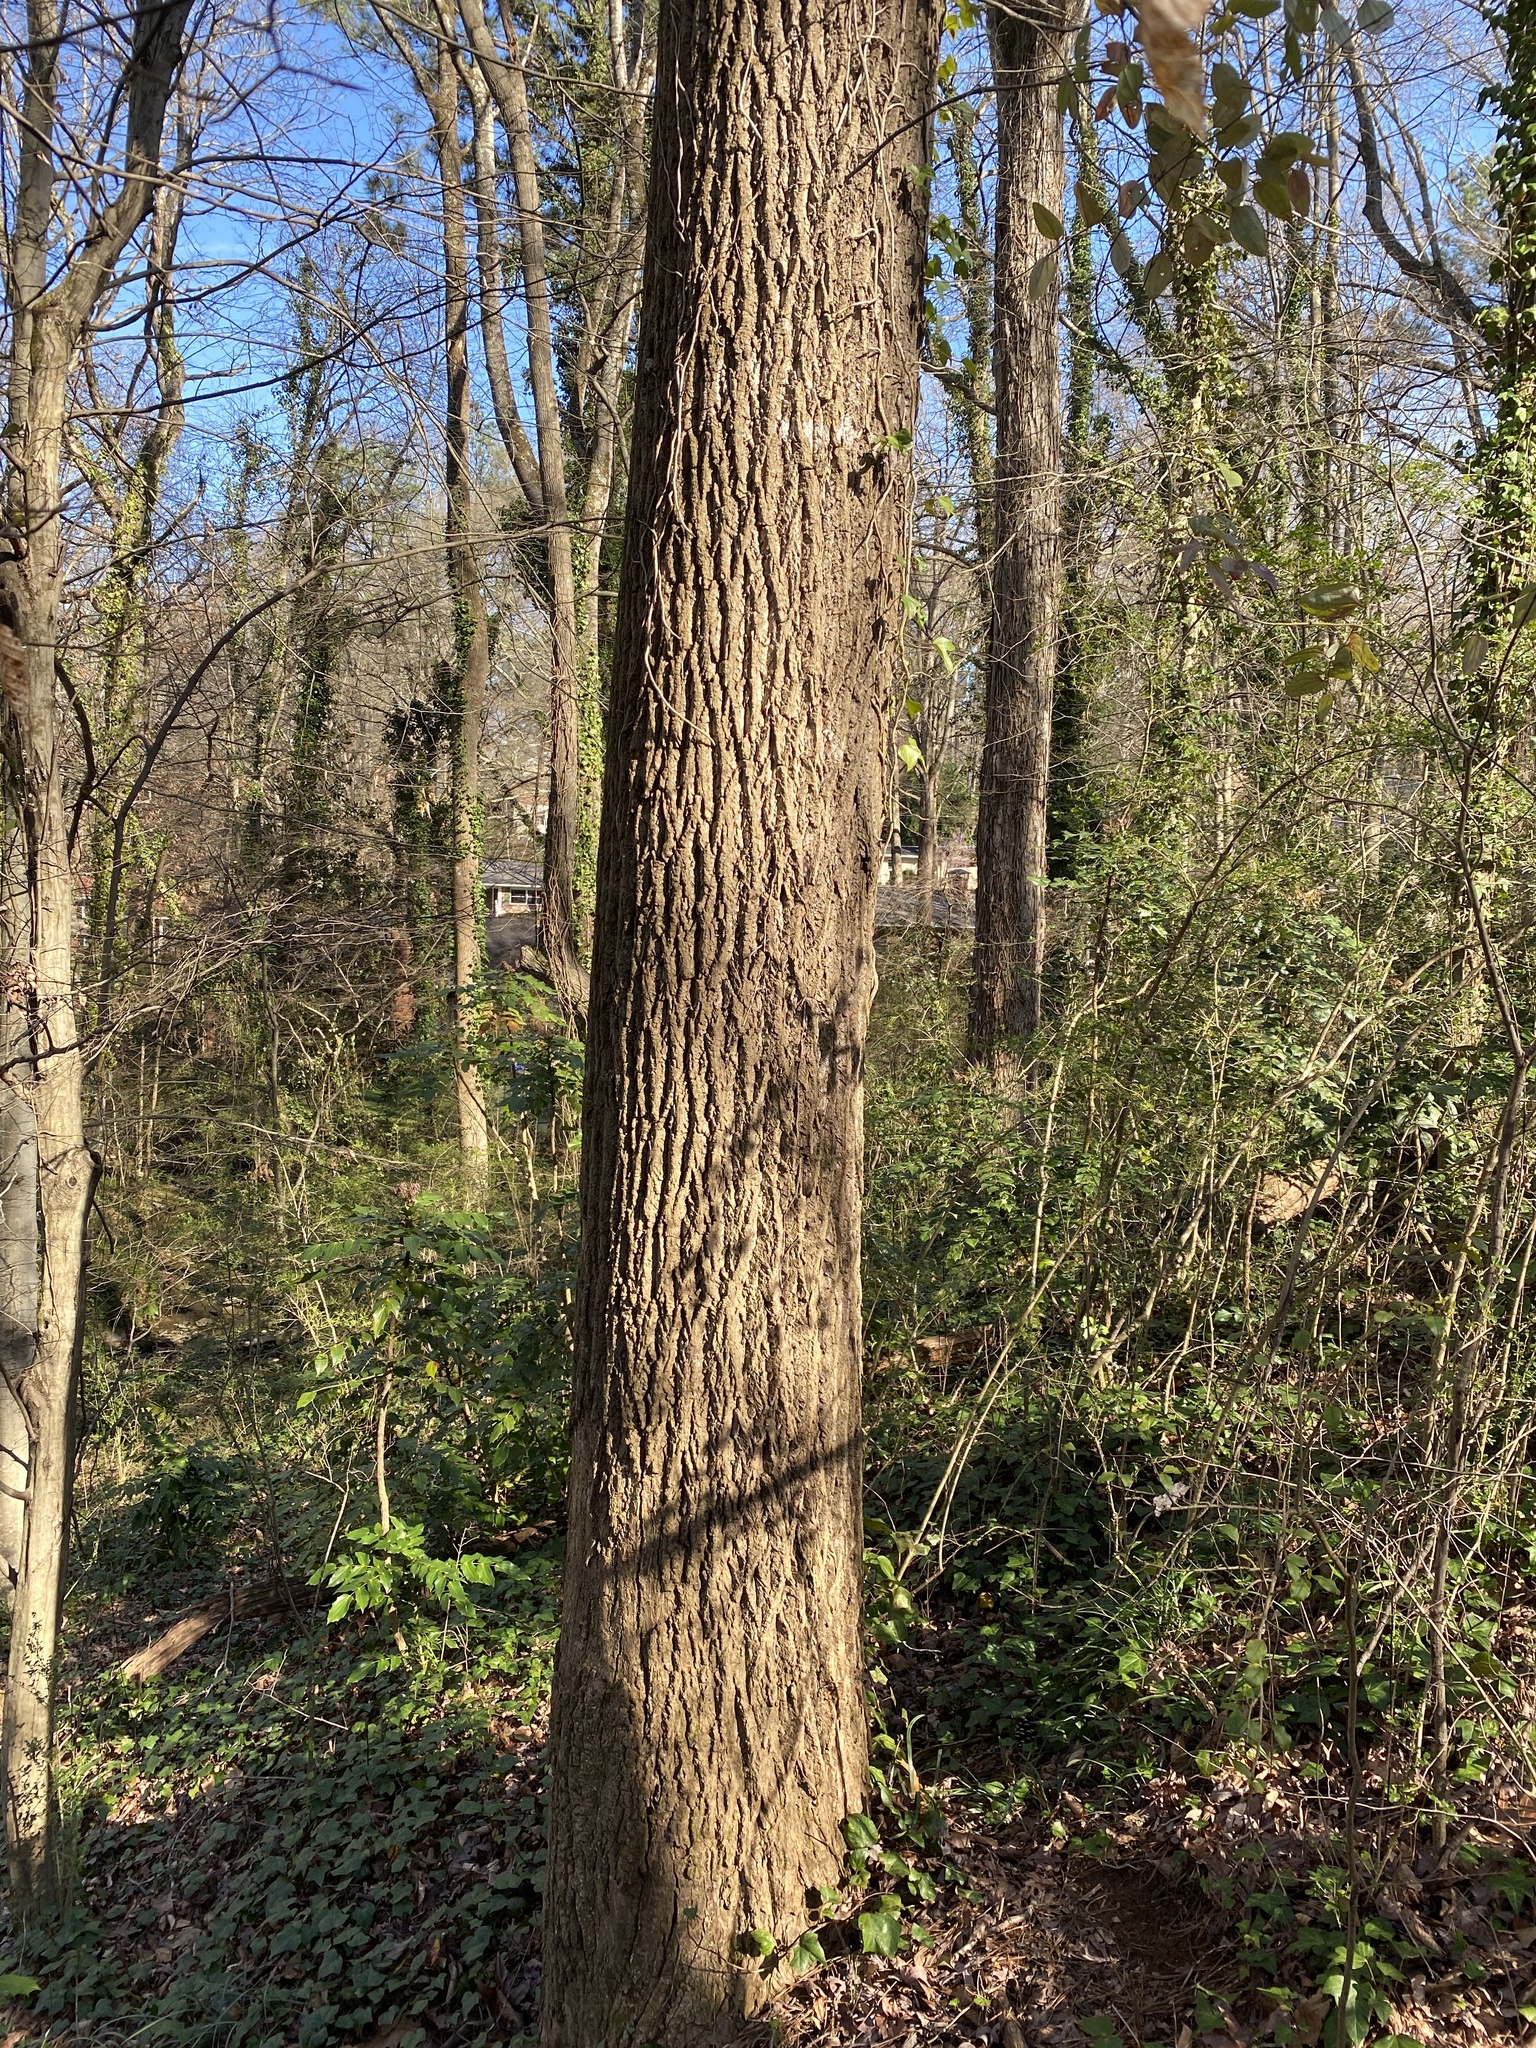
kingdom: Plantae
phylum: Tracheophyta
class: Magnoliopsida
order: Magnoliales
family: Magnoliaceae
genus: Liriodendron
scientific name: Liriodendron tulipifera
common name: Tulip tree
